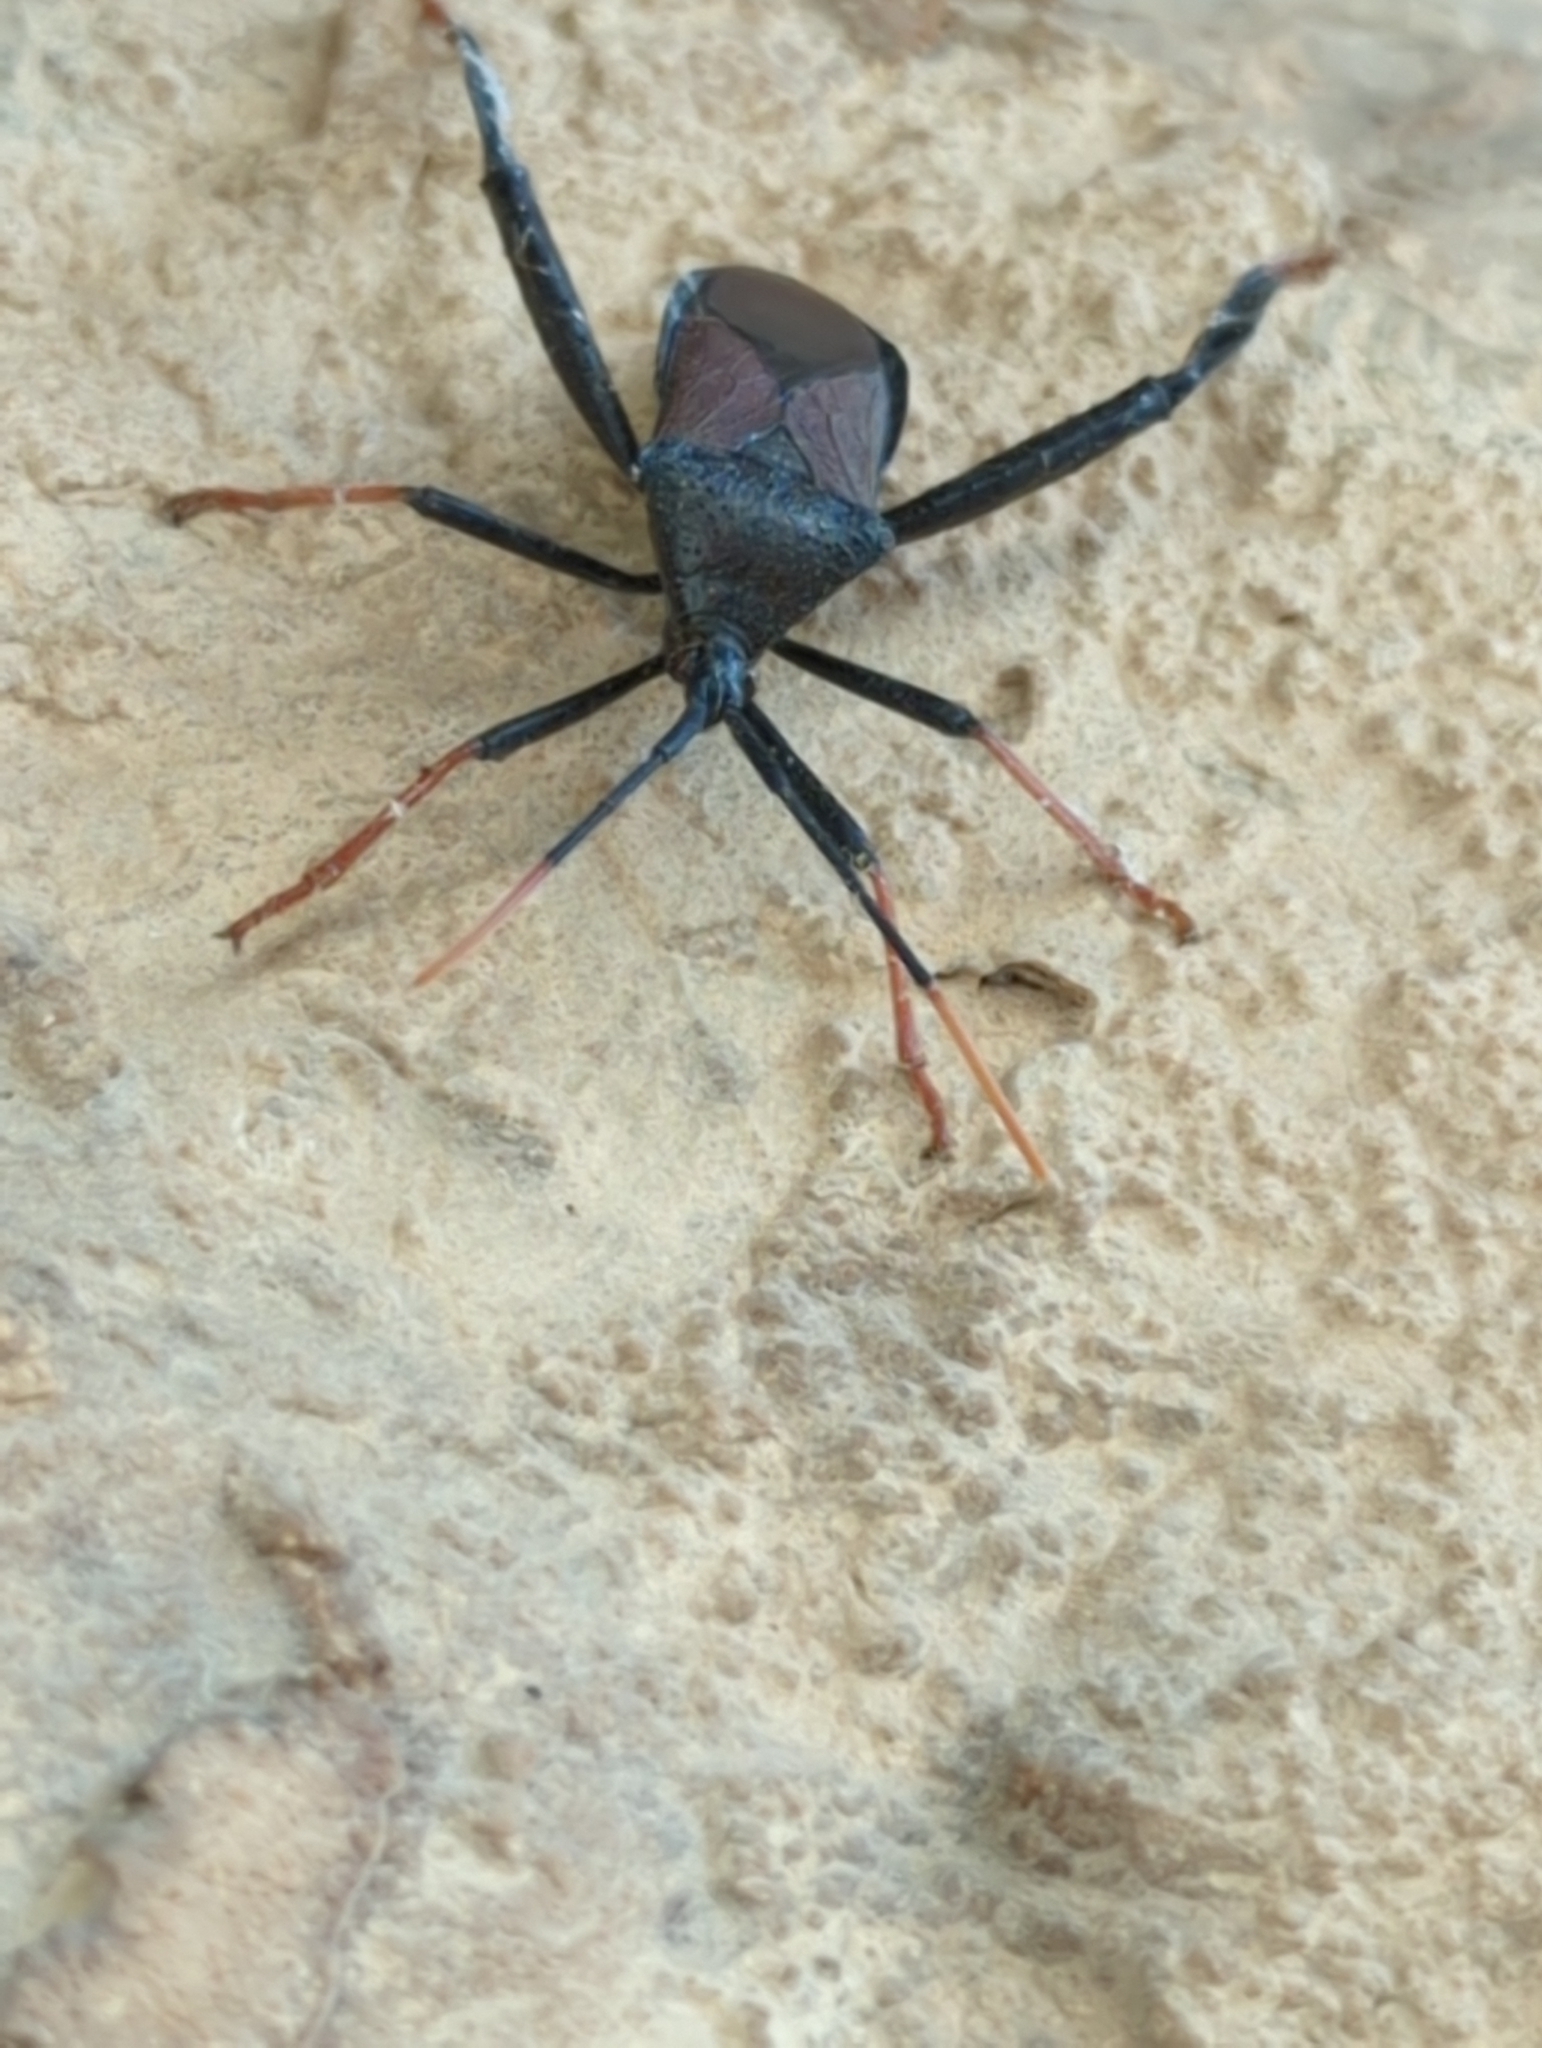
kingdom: Animalia
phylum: Arthropoda
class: Insecta
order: Hemiptera
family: Coreidae
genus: Acanthocephala
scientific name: Acanthocephala thomasi
